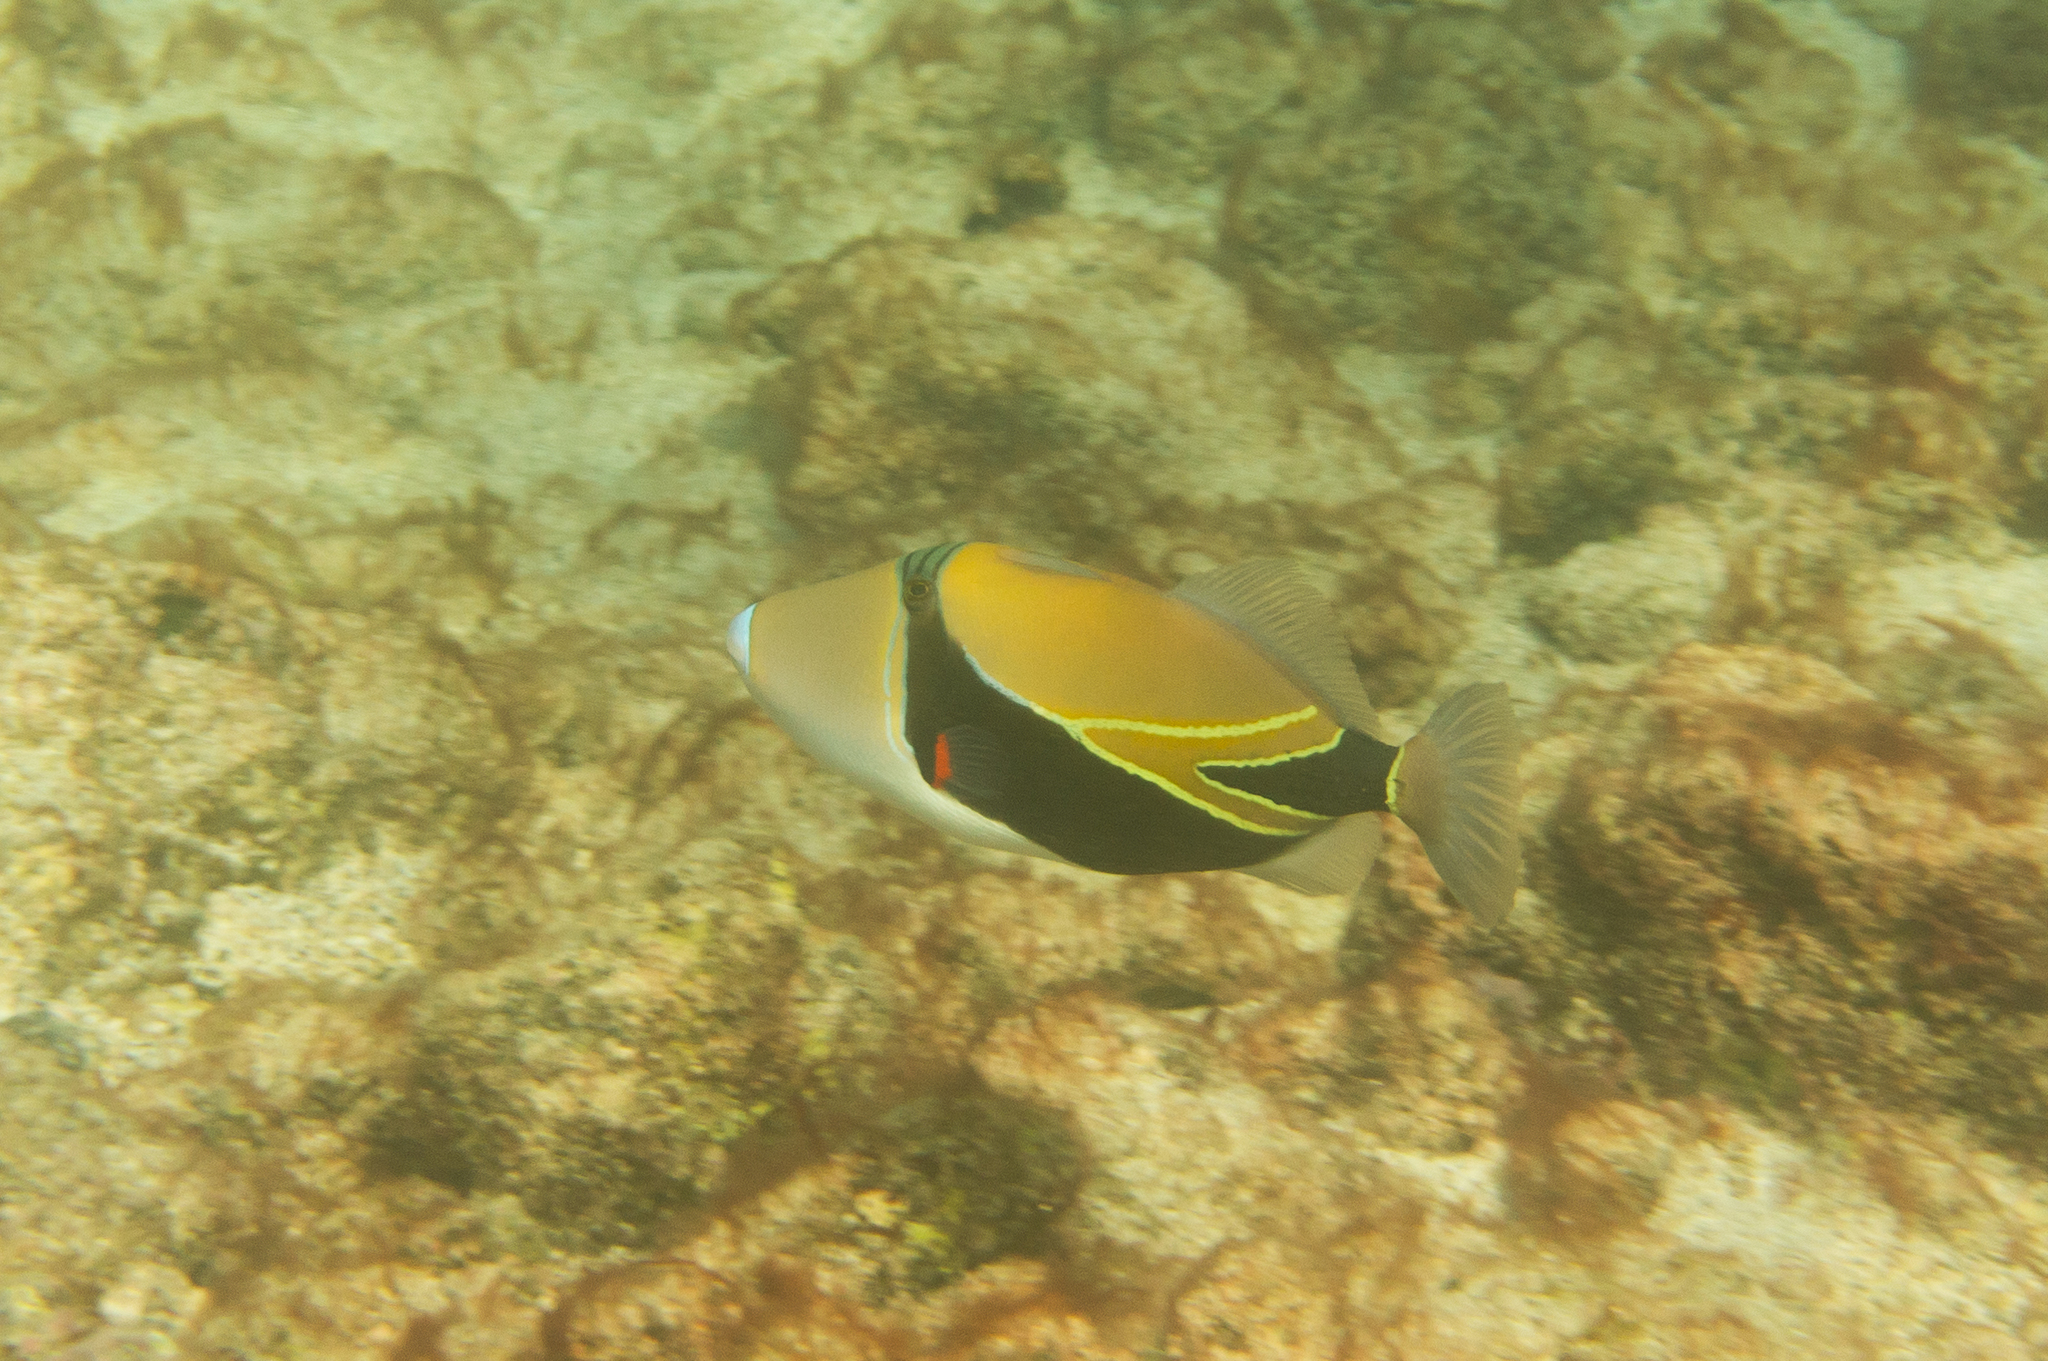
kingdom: Animalia
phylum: Chordata
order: Tetraodontiformes
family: Balistidae
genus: Rhinecanthus
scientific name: Rhinecanthus rectangulus
